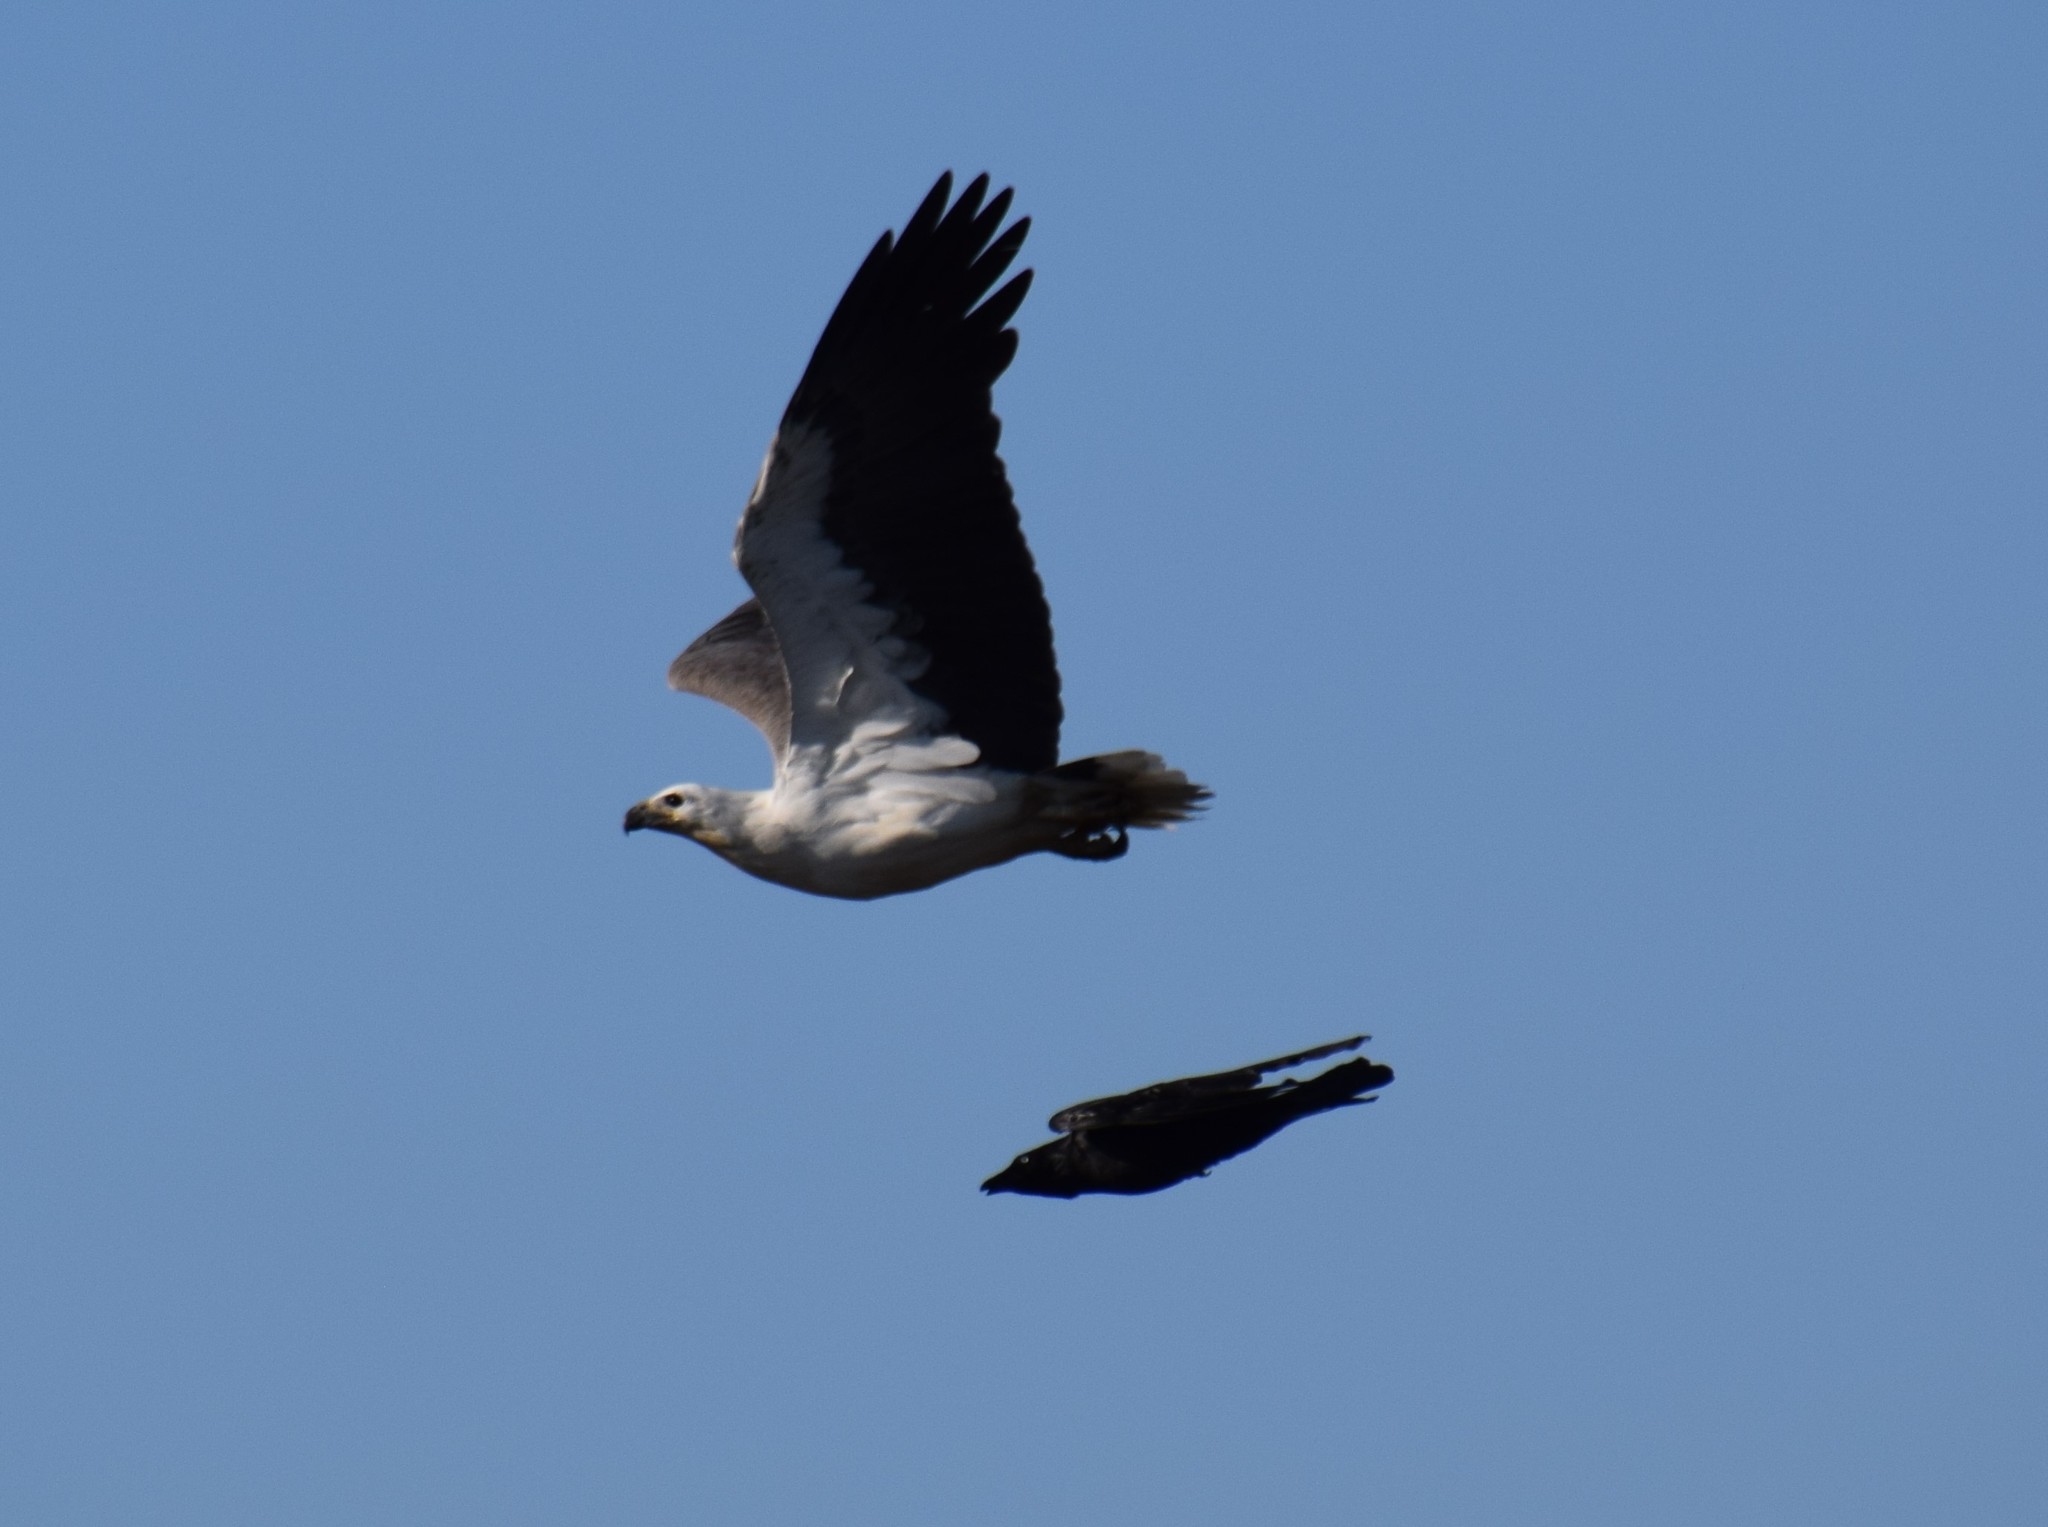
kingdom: Animalia
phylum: Chordata
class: Aves
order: Accipitriformes
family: Accipitridae
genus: Haliaeetus
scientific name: Haliaeetus leucogaster
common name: White-bellied sea eagle
